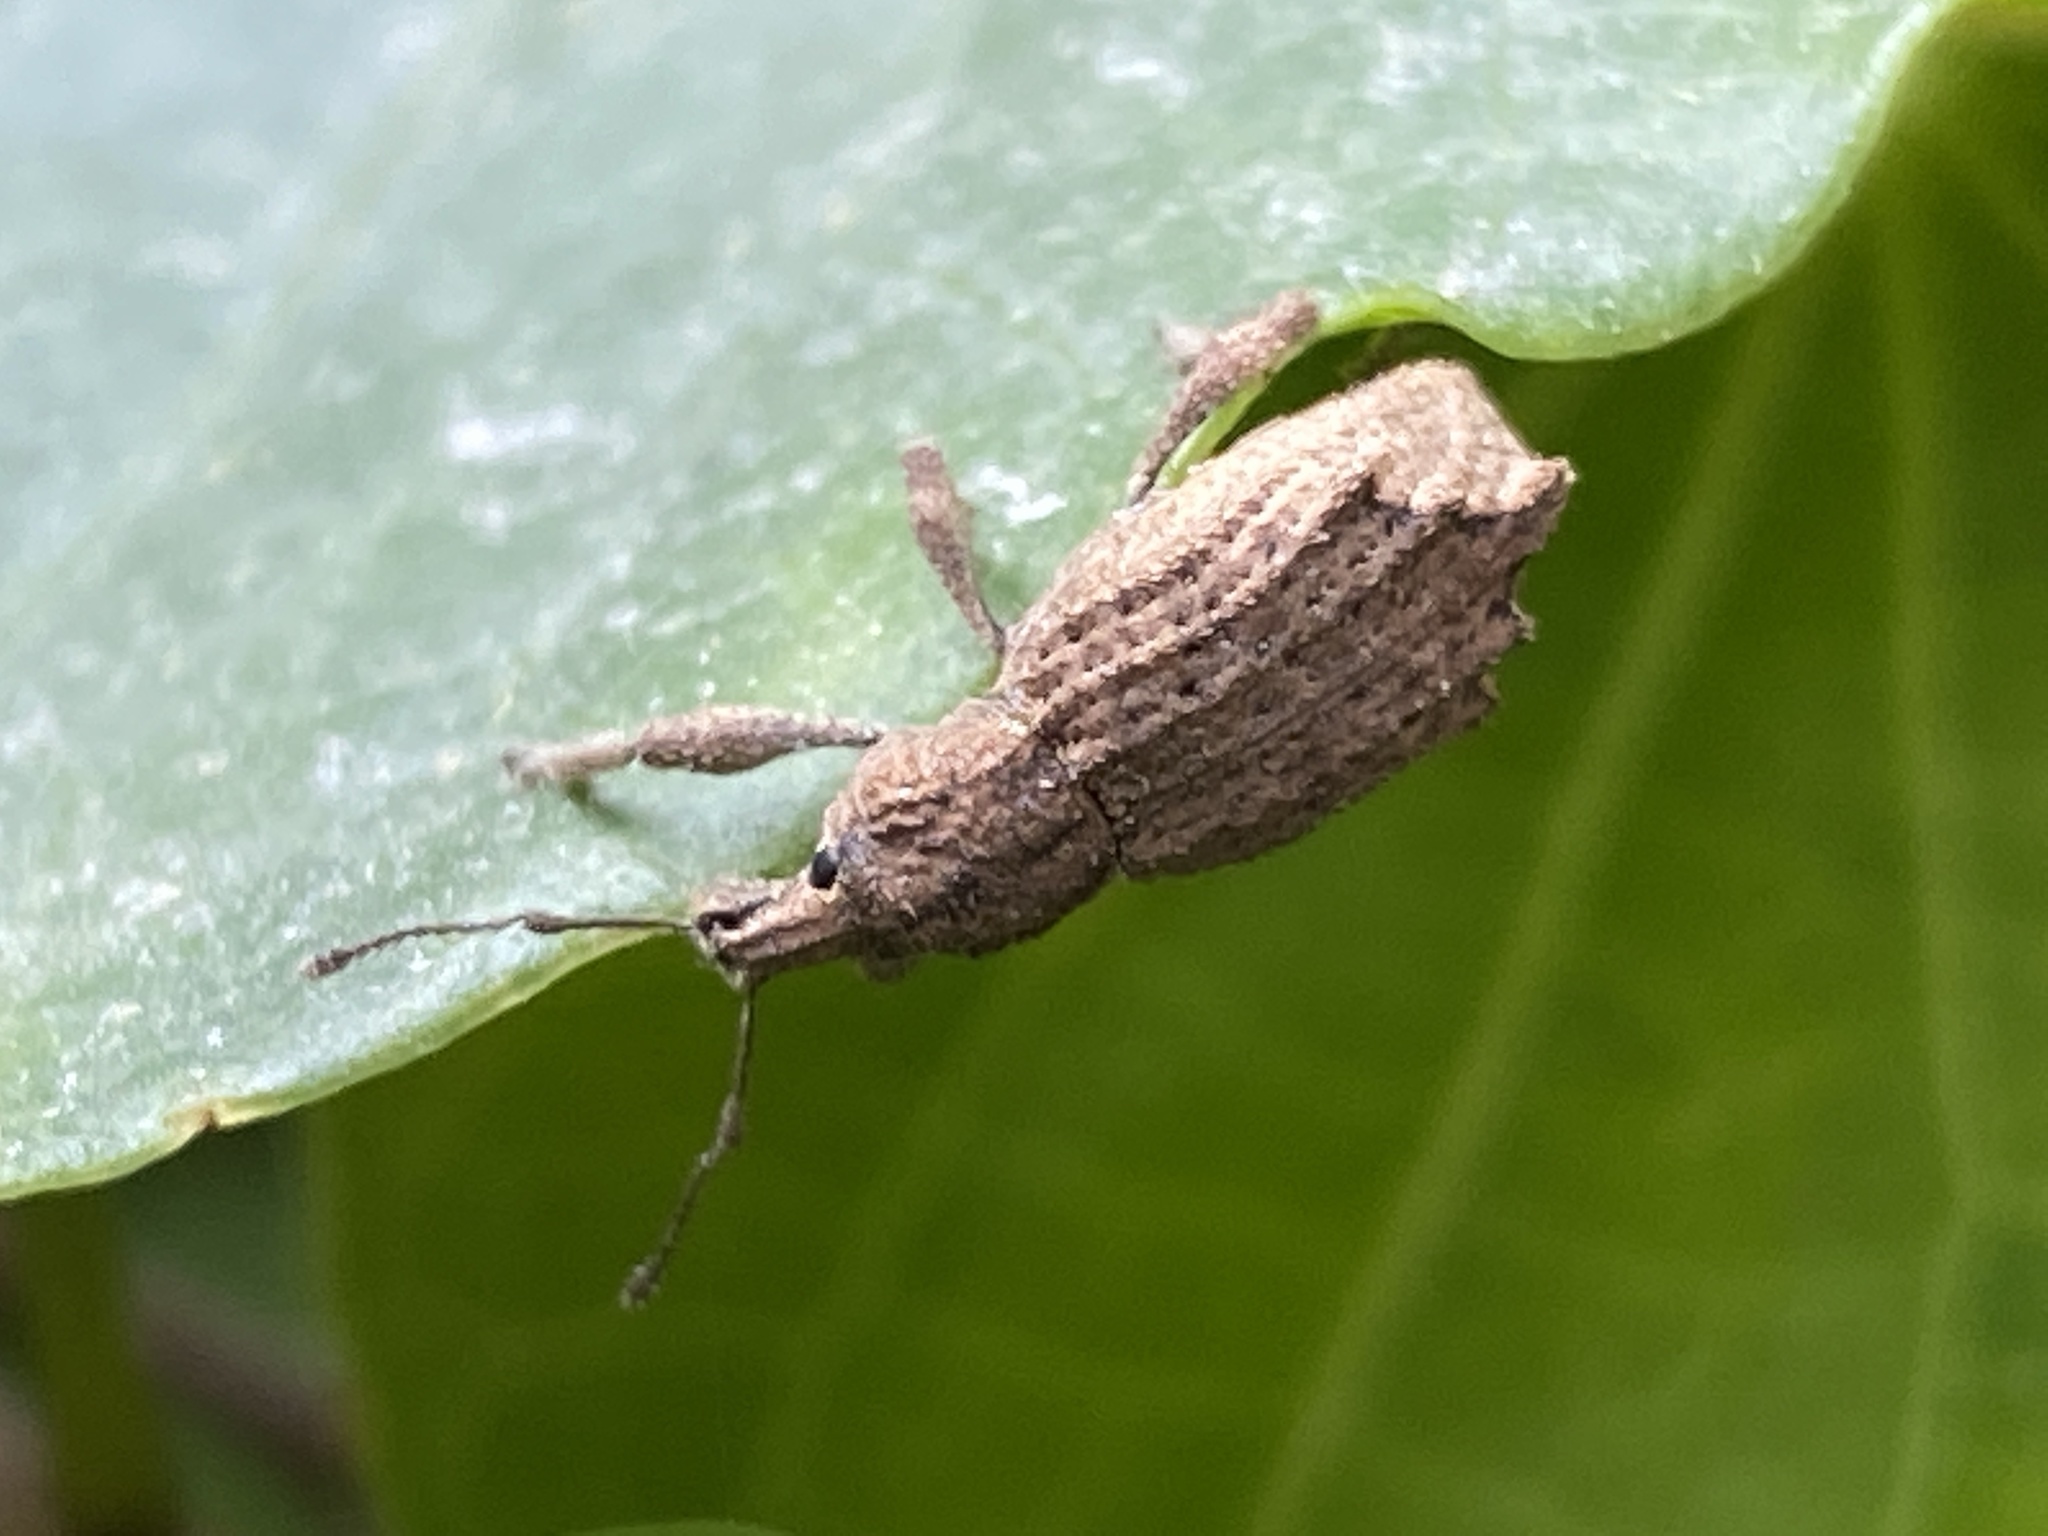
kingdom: Animalia
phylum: Arthropoda
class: Insecta
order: Coleoptera
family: Curculionidae
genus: Chalepistes
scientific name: Chalepistes rhesus
